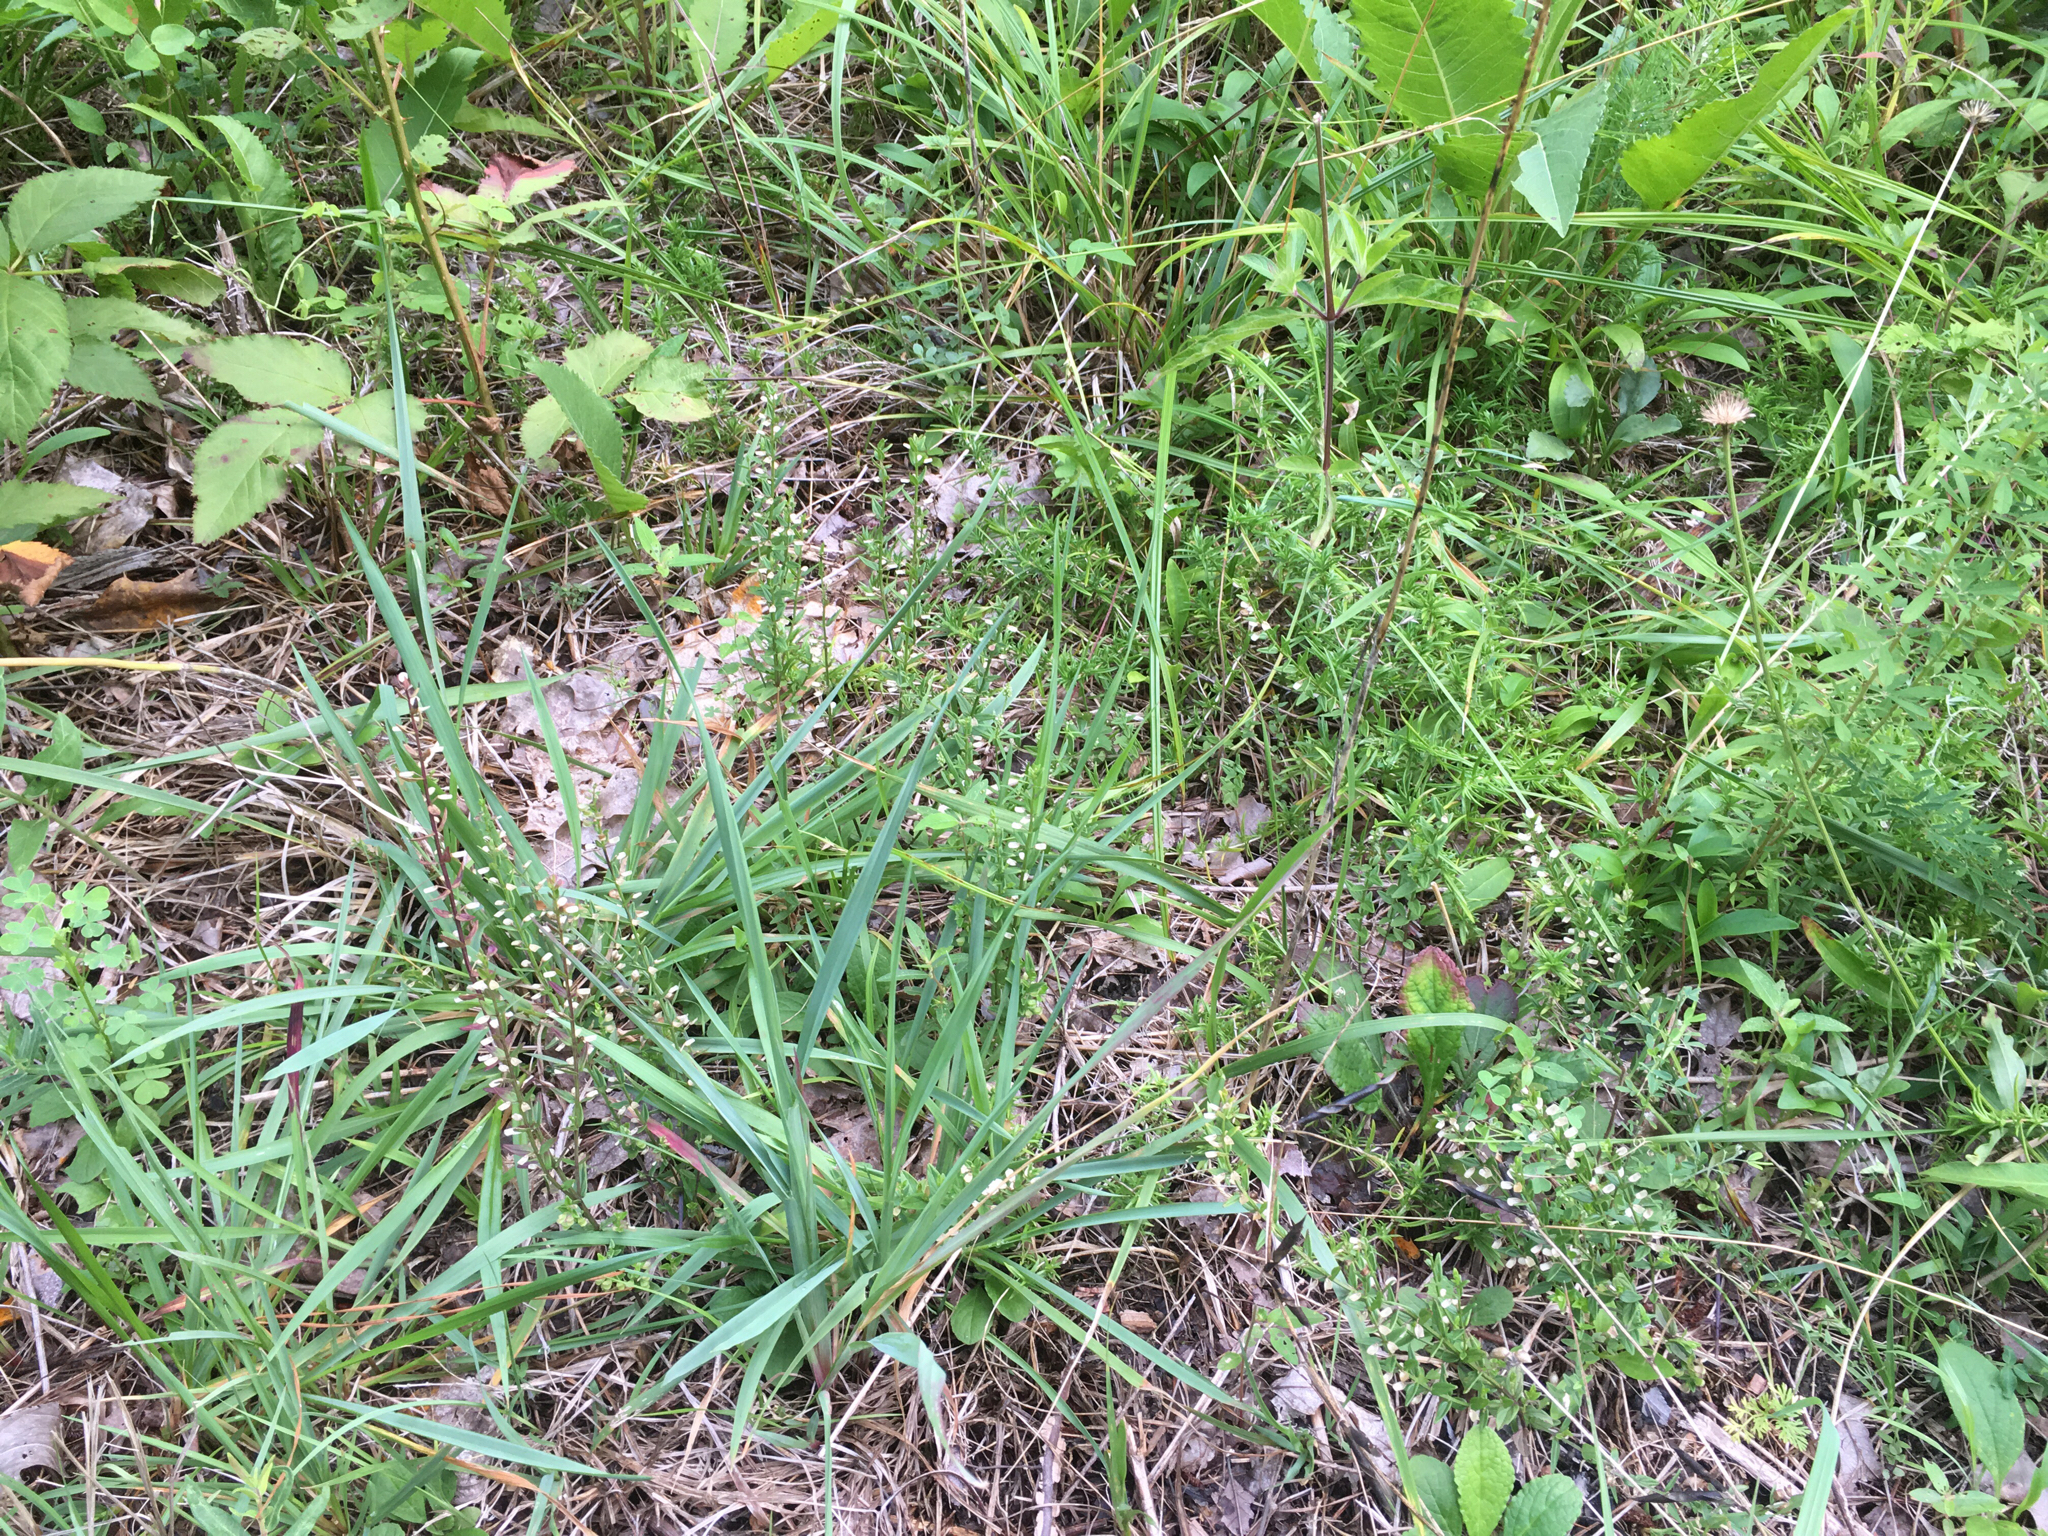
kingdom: Plantae
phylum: Tracheophyta
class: Magnoliopsida
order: Lamiales
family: Lamiaceae
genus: Scutellaria
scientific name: Scutellaria parvula
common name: Little scullcap
